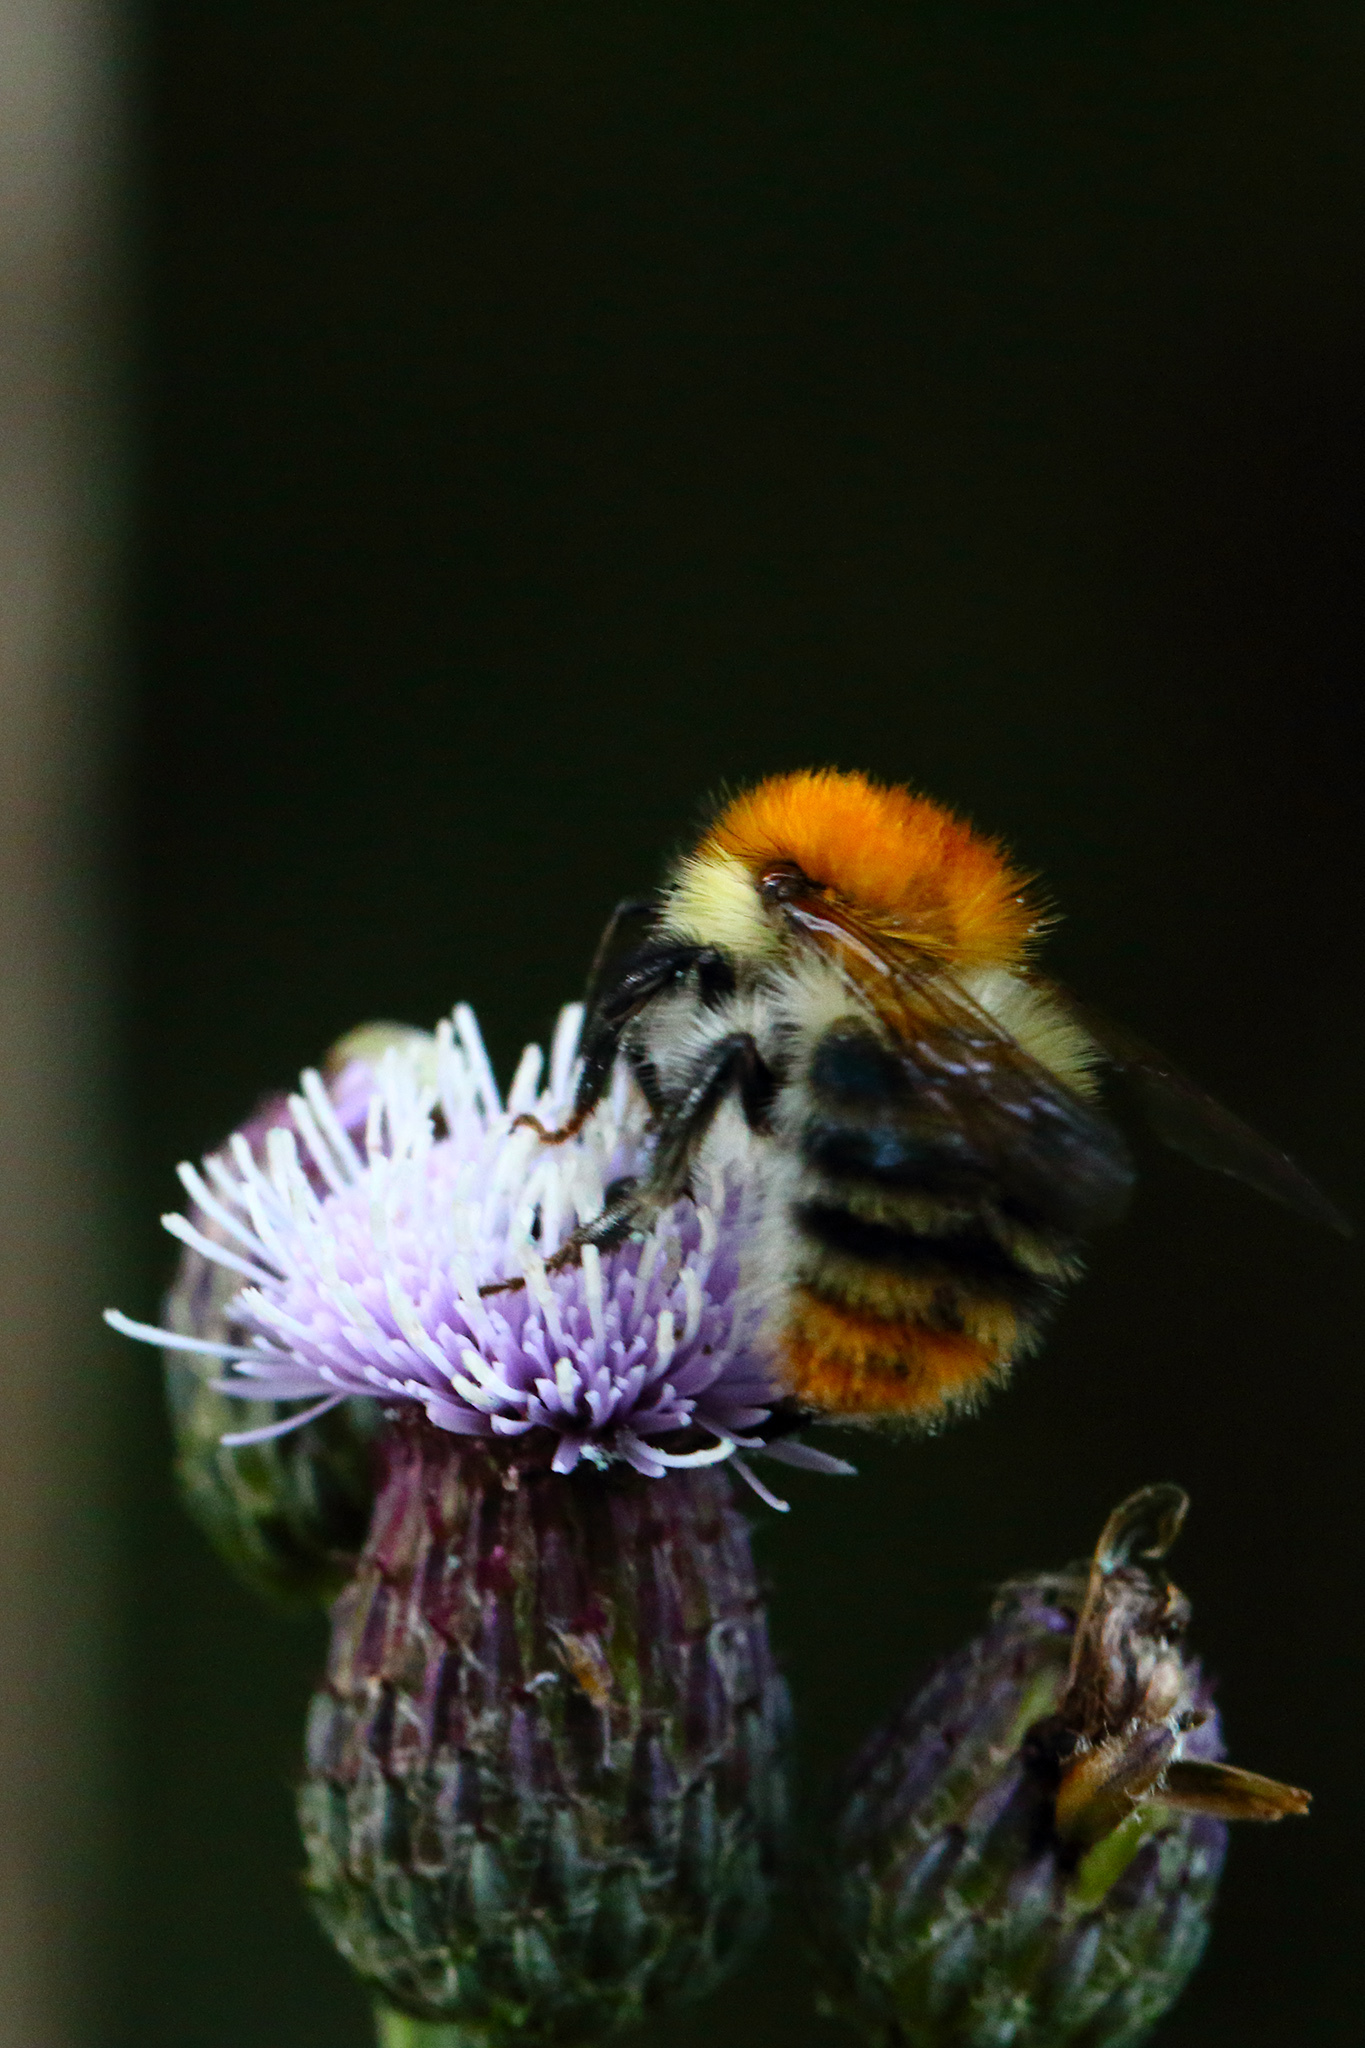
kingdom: Animalia
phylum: Arthropoda
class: Insecta
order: Hymenoptera
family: Apidae
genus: Bombus
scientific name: Bombus pascuorum
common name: Common carder bee
